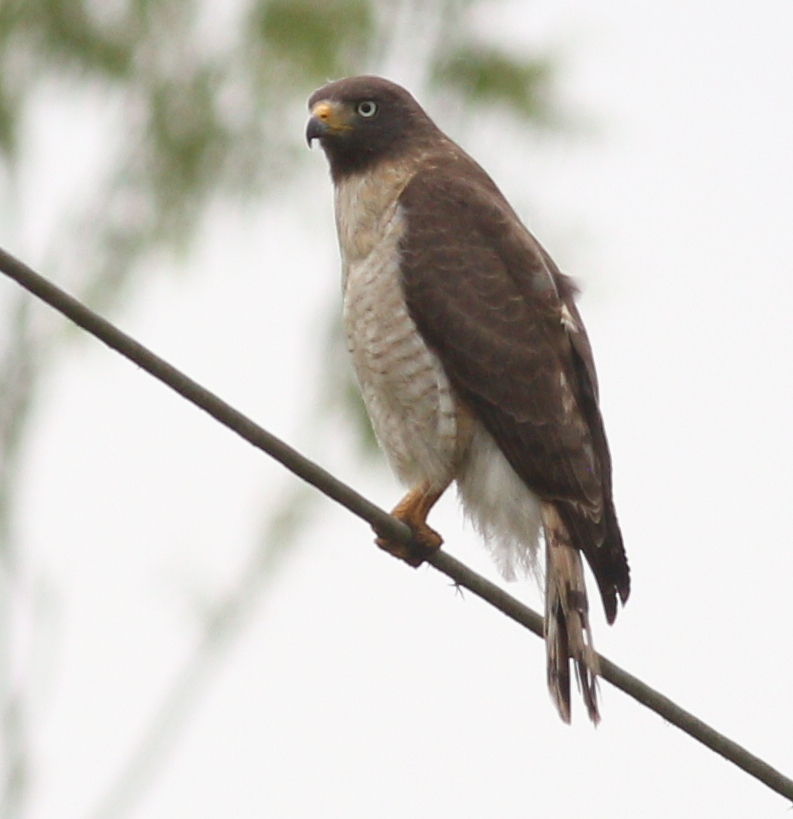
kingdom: Animalia
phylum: Chordata
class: Aves
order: Accipitriformes
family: Accipitridae
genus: Rupornis
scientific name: Rupornis magnirostris
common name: Roadside hawk
